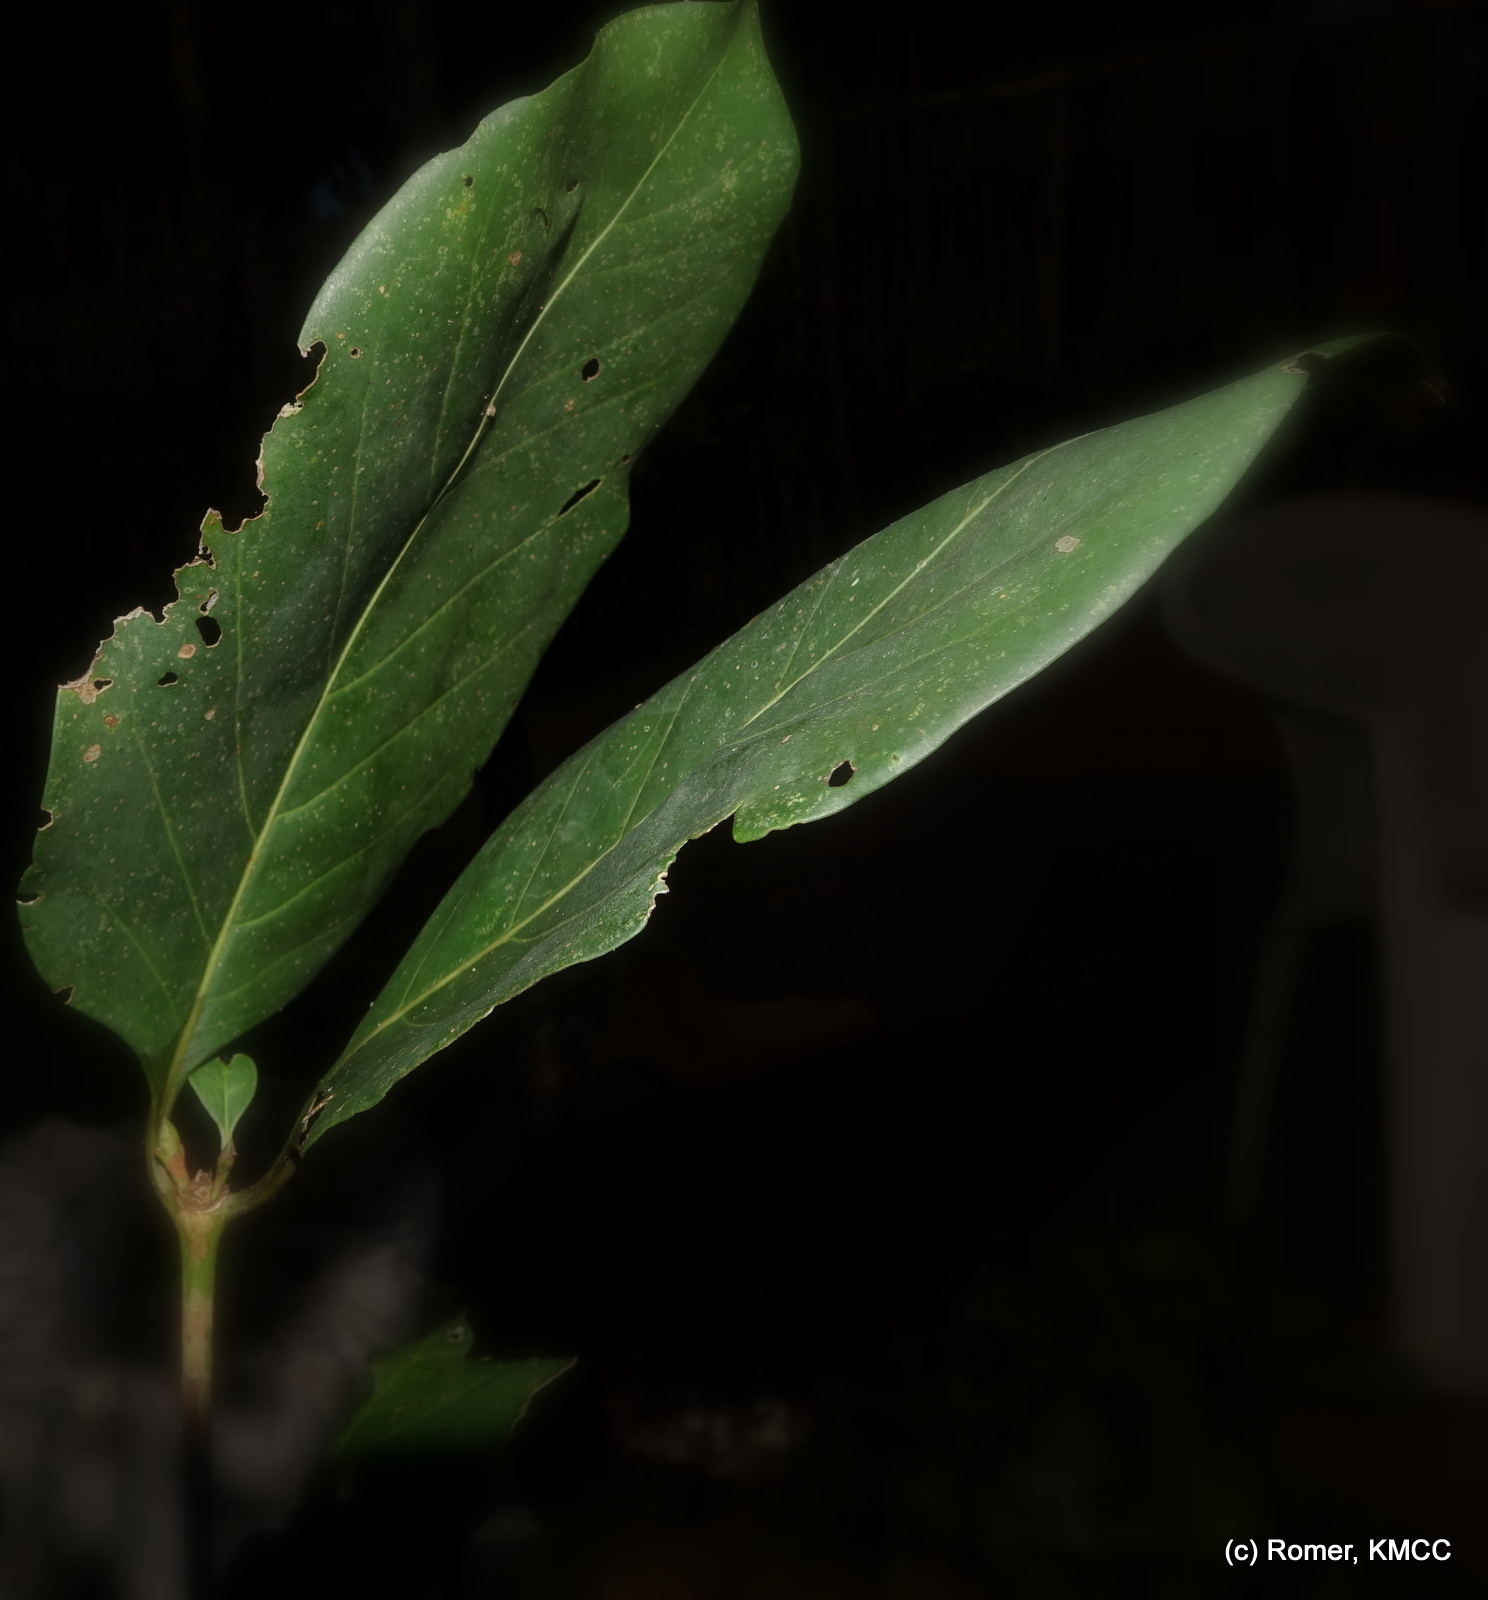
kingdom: Plantae
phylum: Tracheophyta
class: Magnoliopsida
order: Gentianales
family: Rubiaceae
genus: Pyrostria
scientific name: Pyrostria major
